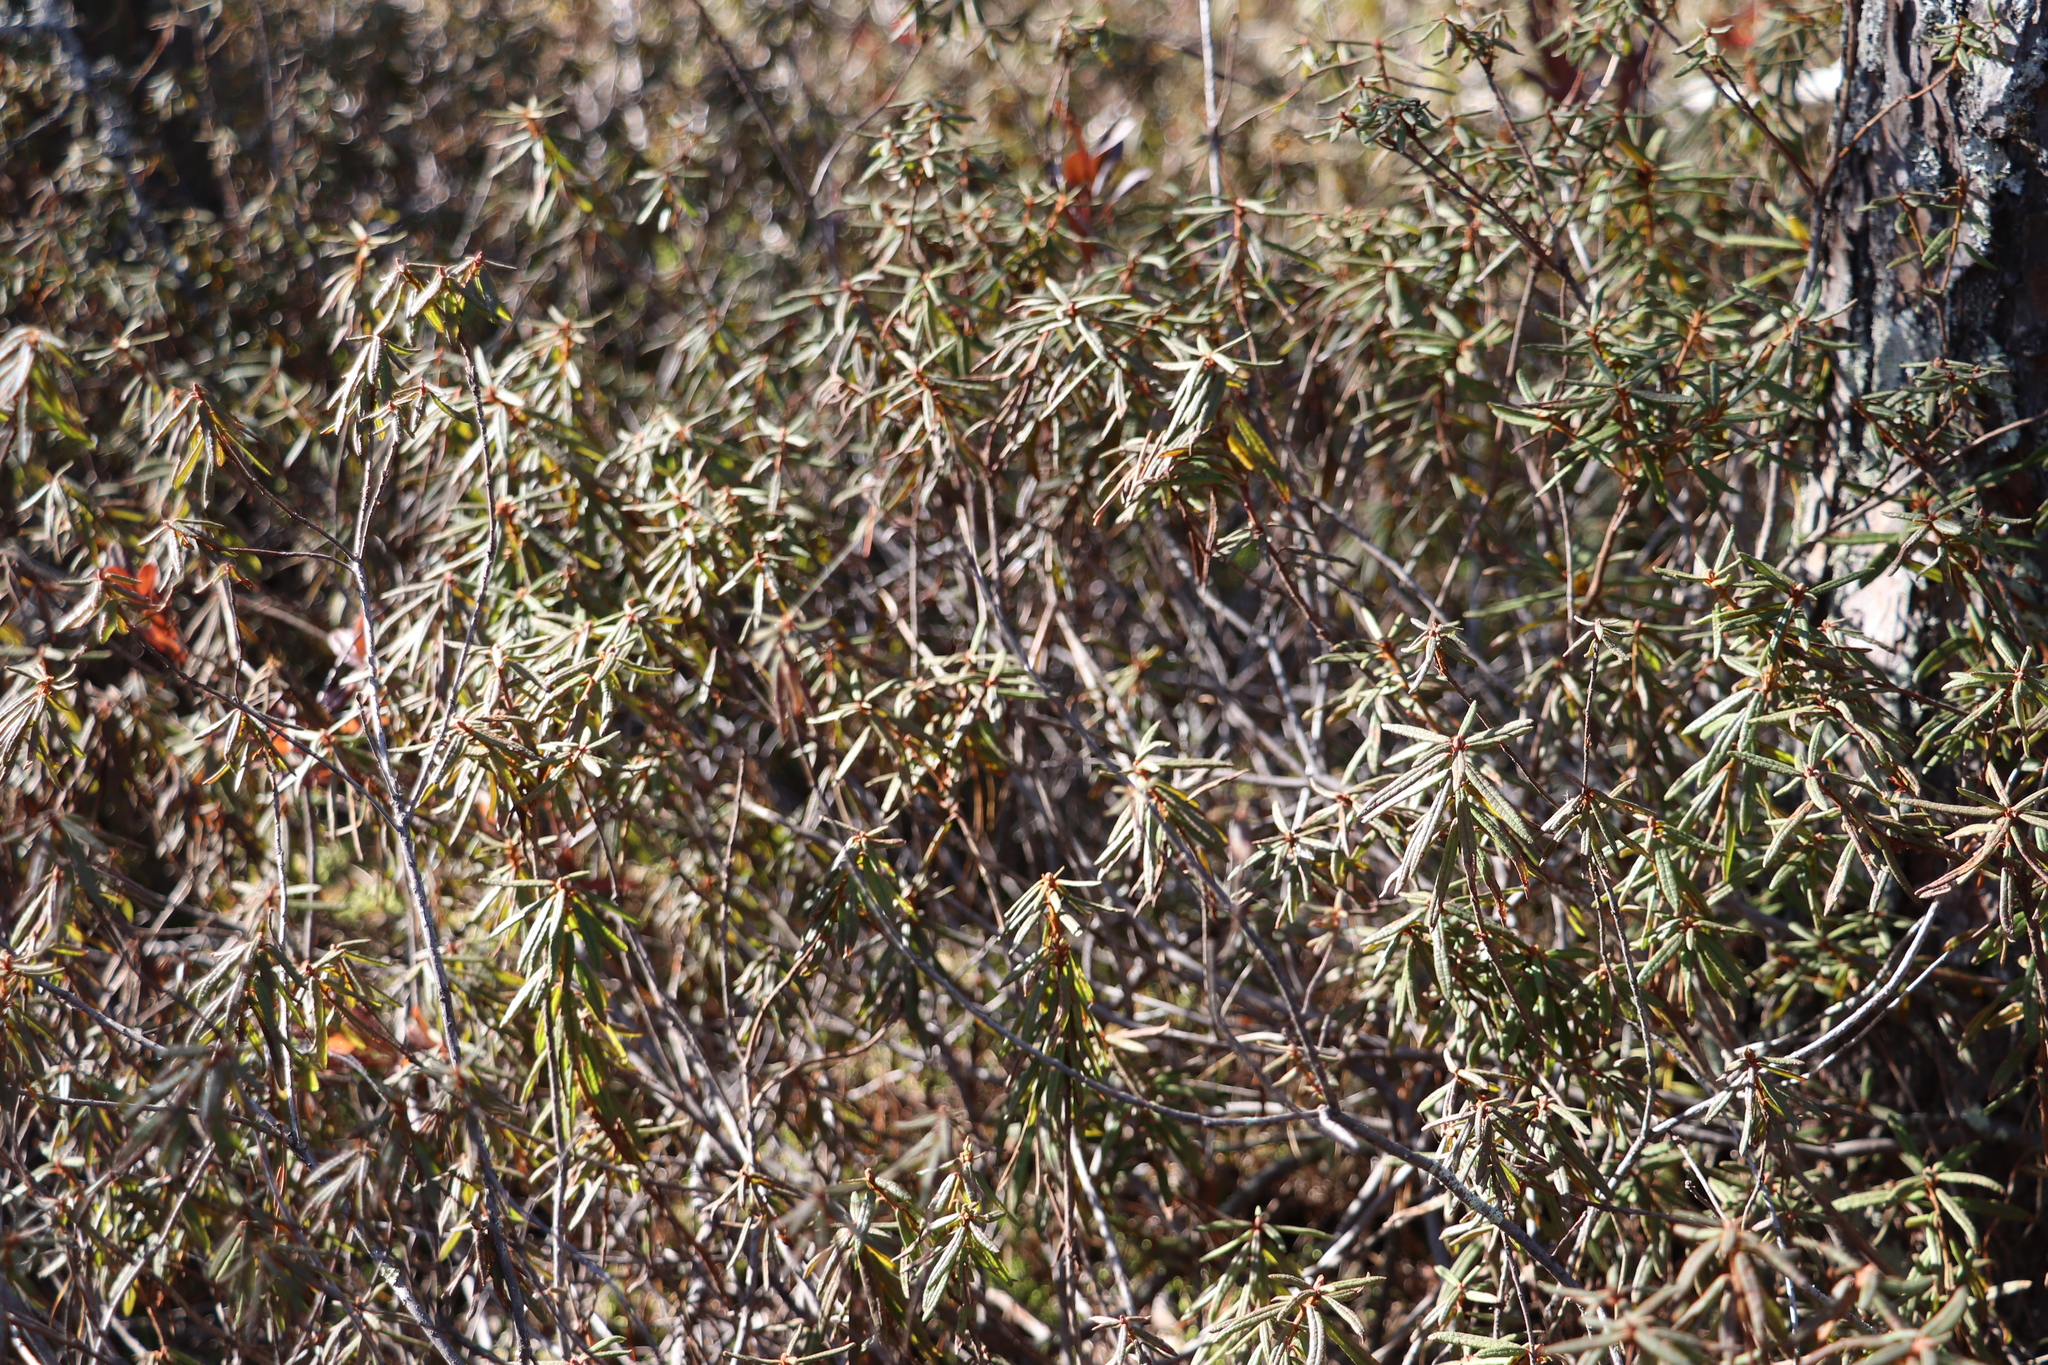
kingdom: Plantae
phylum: Tracheophyta
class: Magnoliopsida
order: Ericales
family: Ericaceae
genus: Rhododendron
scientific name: Rhododendron tomentosum
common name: Marsh labrador tea
